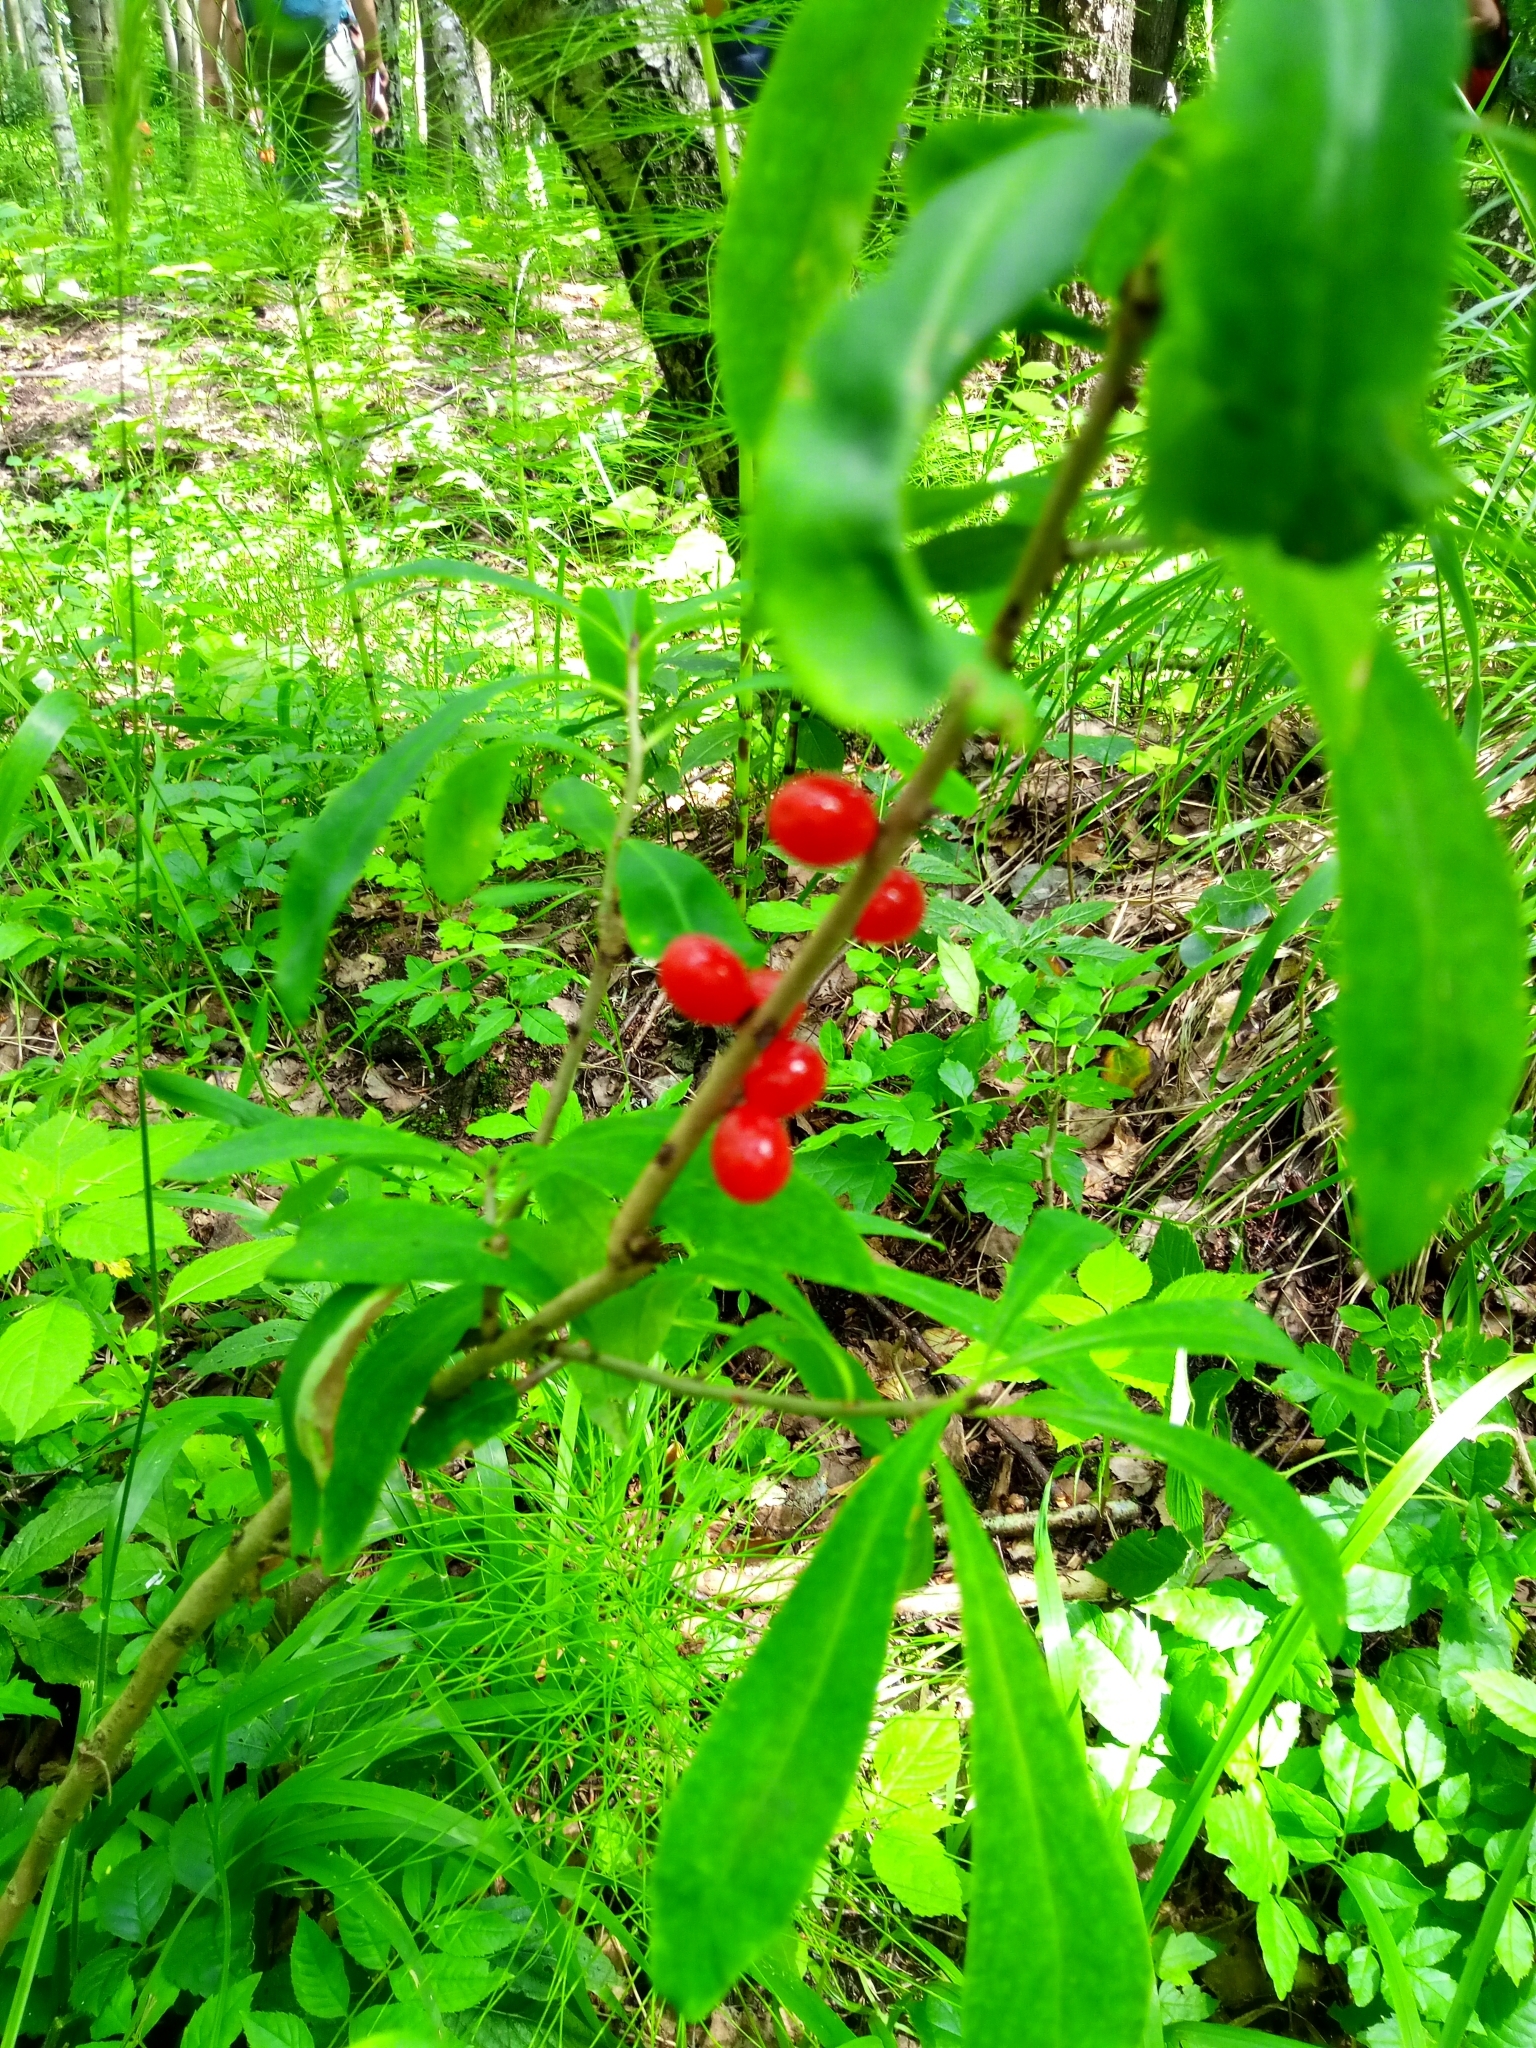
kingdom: Plantae
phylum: Tracheophyta
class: Magnoliopsida
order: Malvales
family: Thymelaeaceae
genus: Daphne
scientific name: Daphne mezereum
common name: Mezereon
